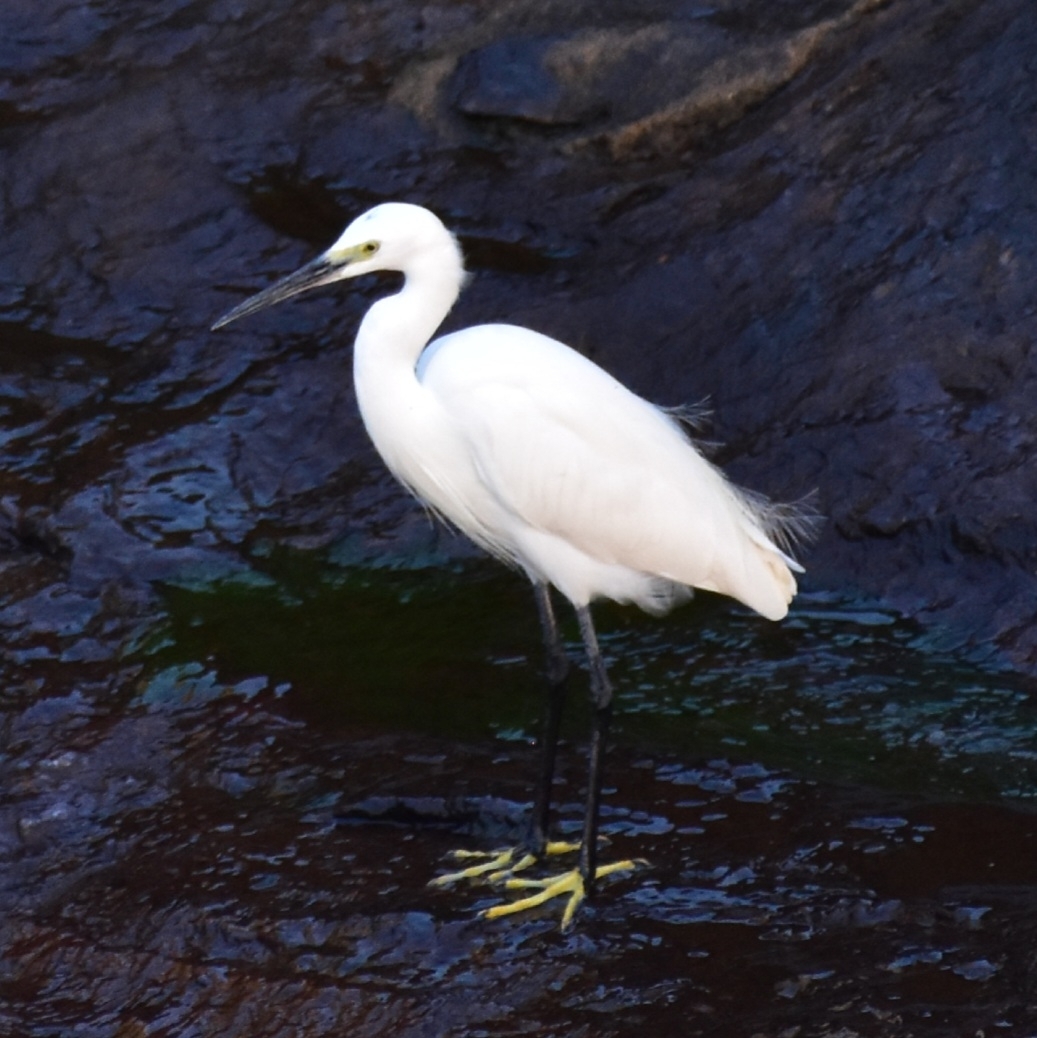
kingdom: Animalia
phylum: Chordata
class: Aves
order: Pelecaniformes
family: Ardeidae
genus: Egretta
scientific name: Egretta garzetta
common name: Little egret
